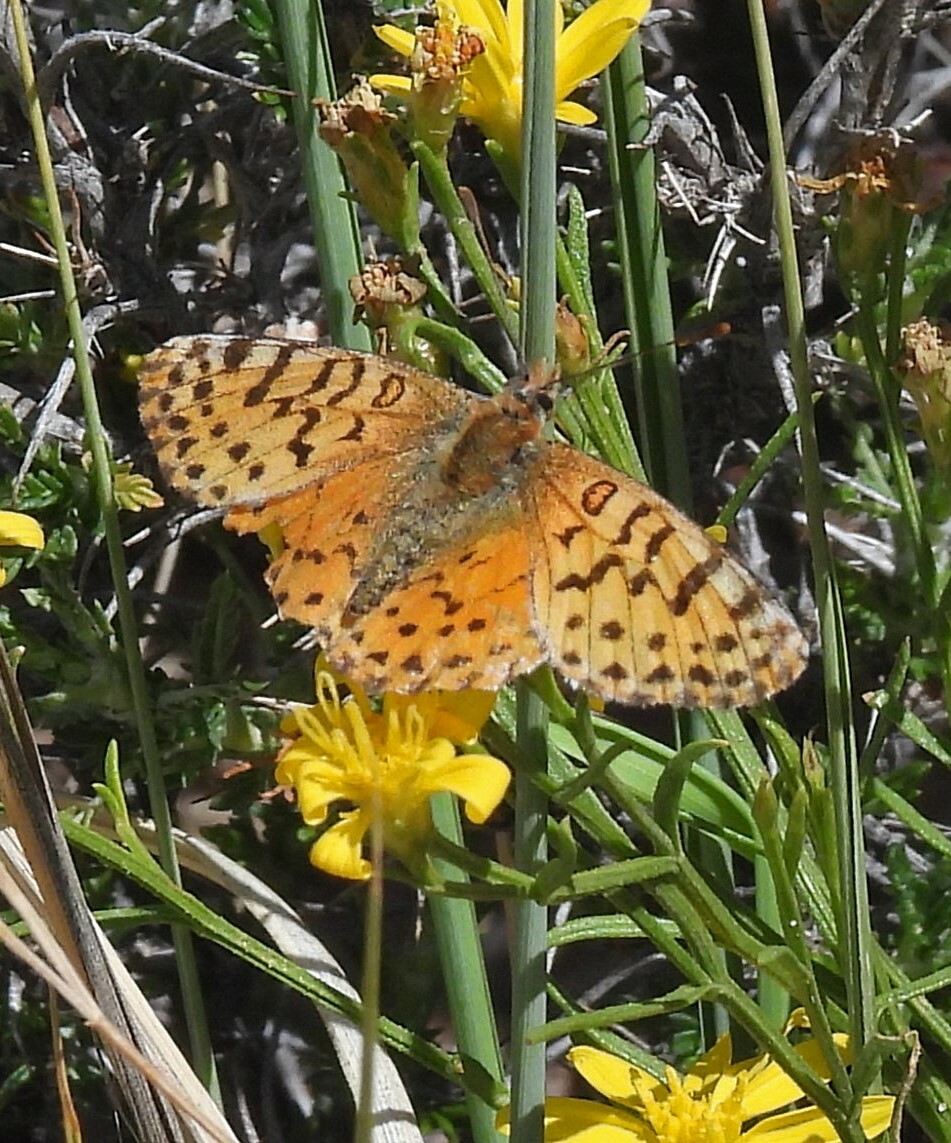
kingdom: Animalia
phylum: Arthropoda
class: Insecta
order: Lepidoptera
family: Nymphalidae
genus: Issoria
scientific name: Issoria
